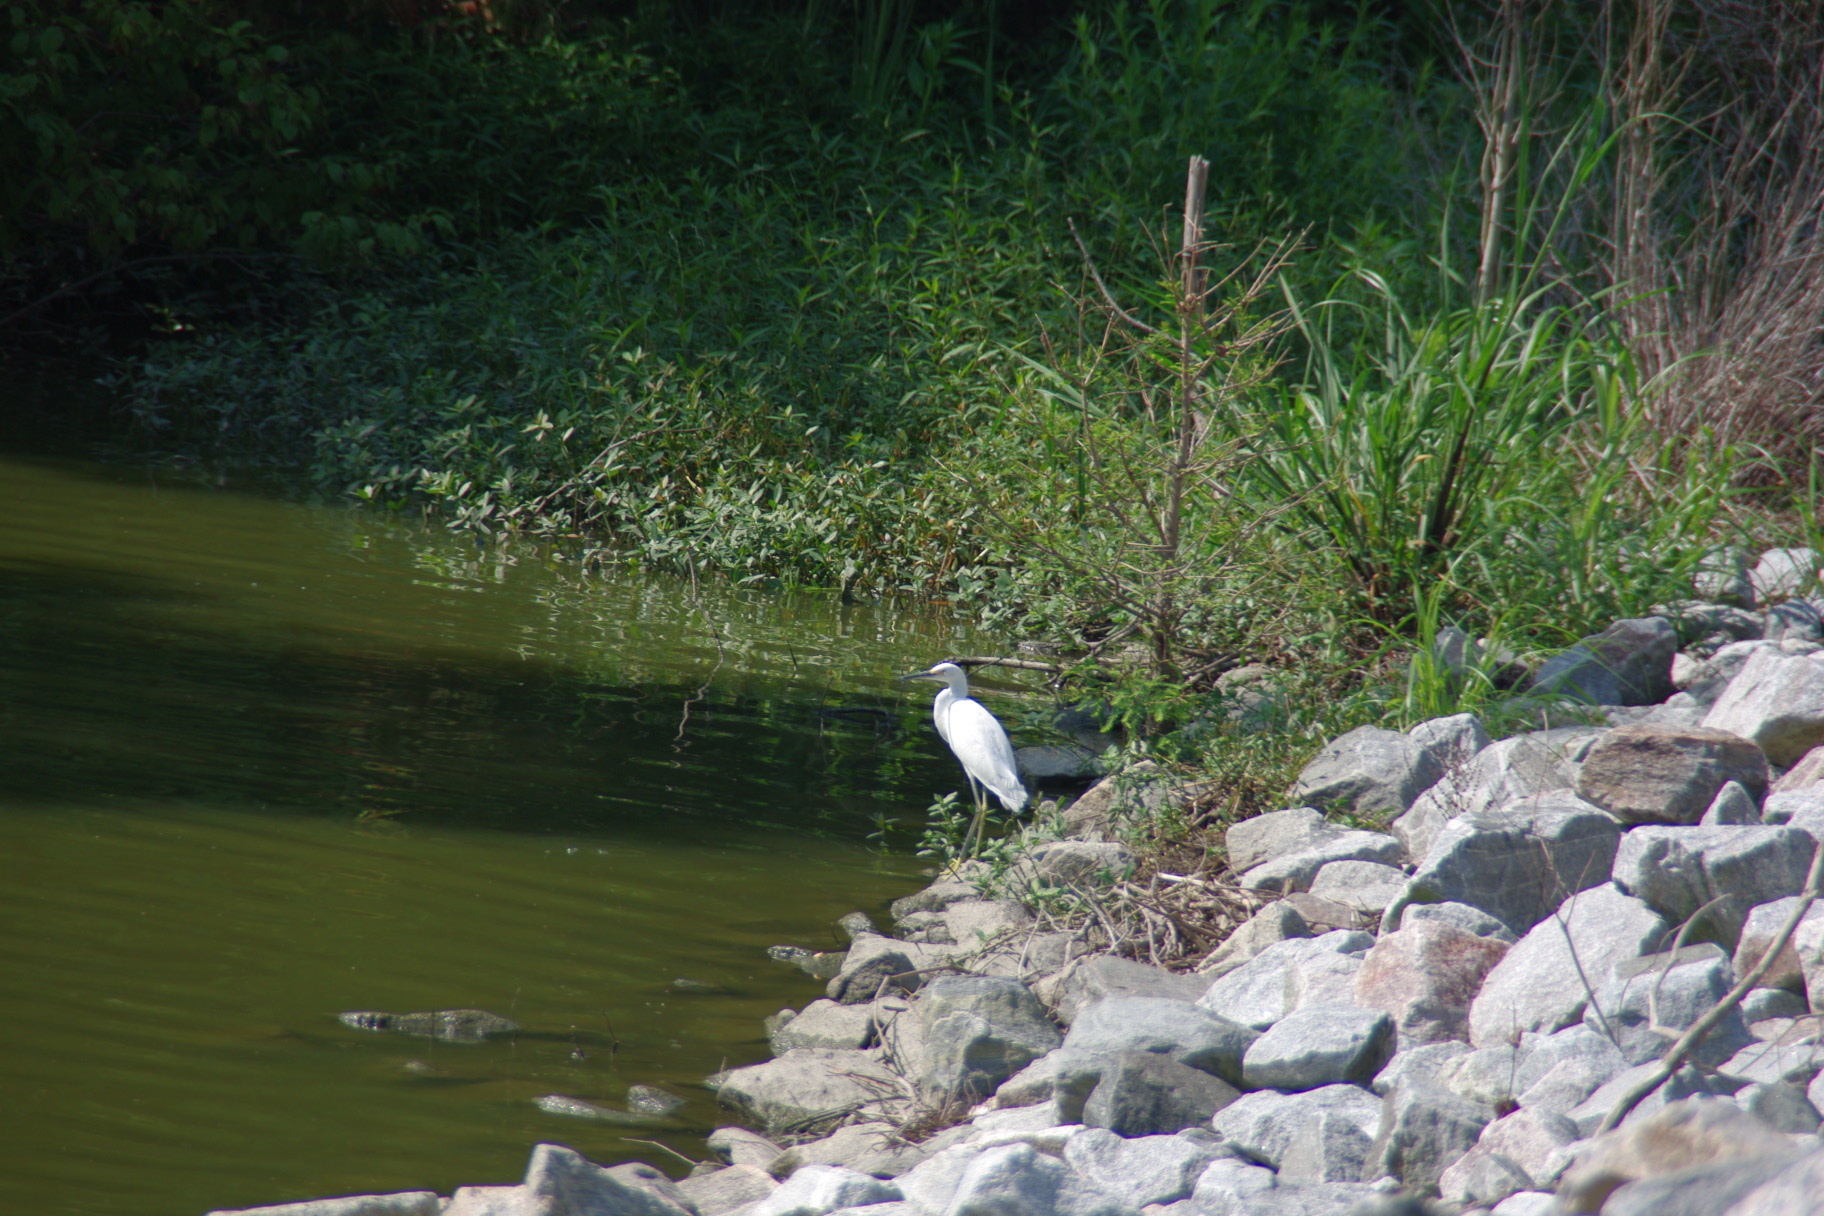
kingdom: Animalia
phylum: Chordata
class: Aves
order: Pelecaniformes
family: Ardeidae
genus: Egretta
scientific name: Egretta thula
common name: Snowy egret
